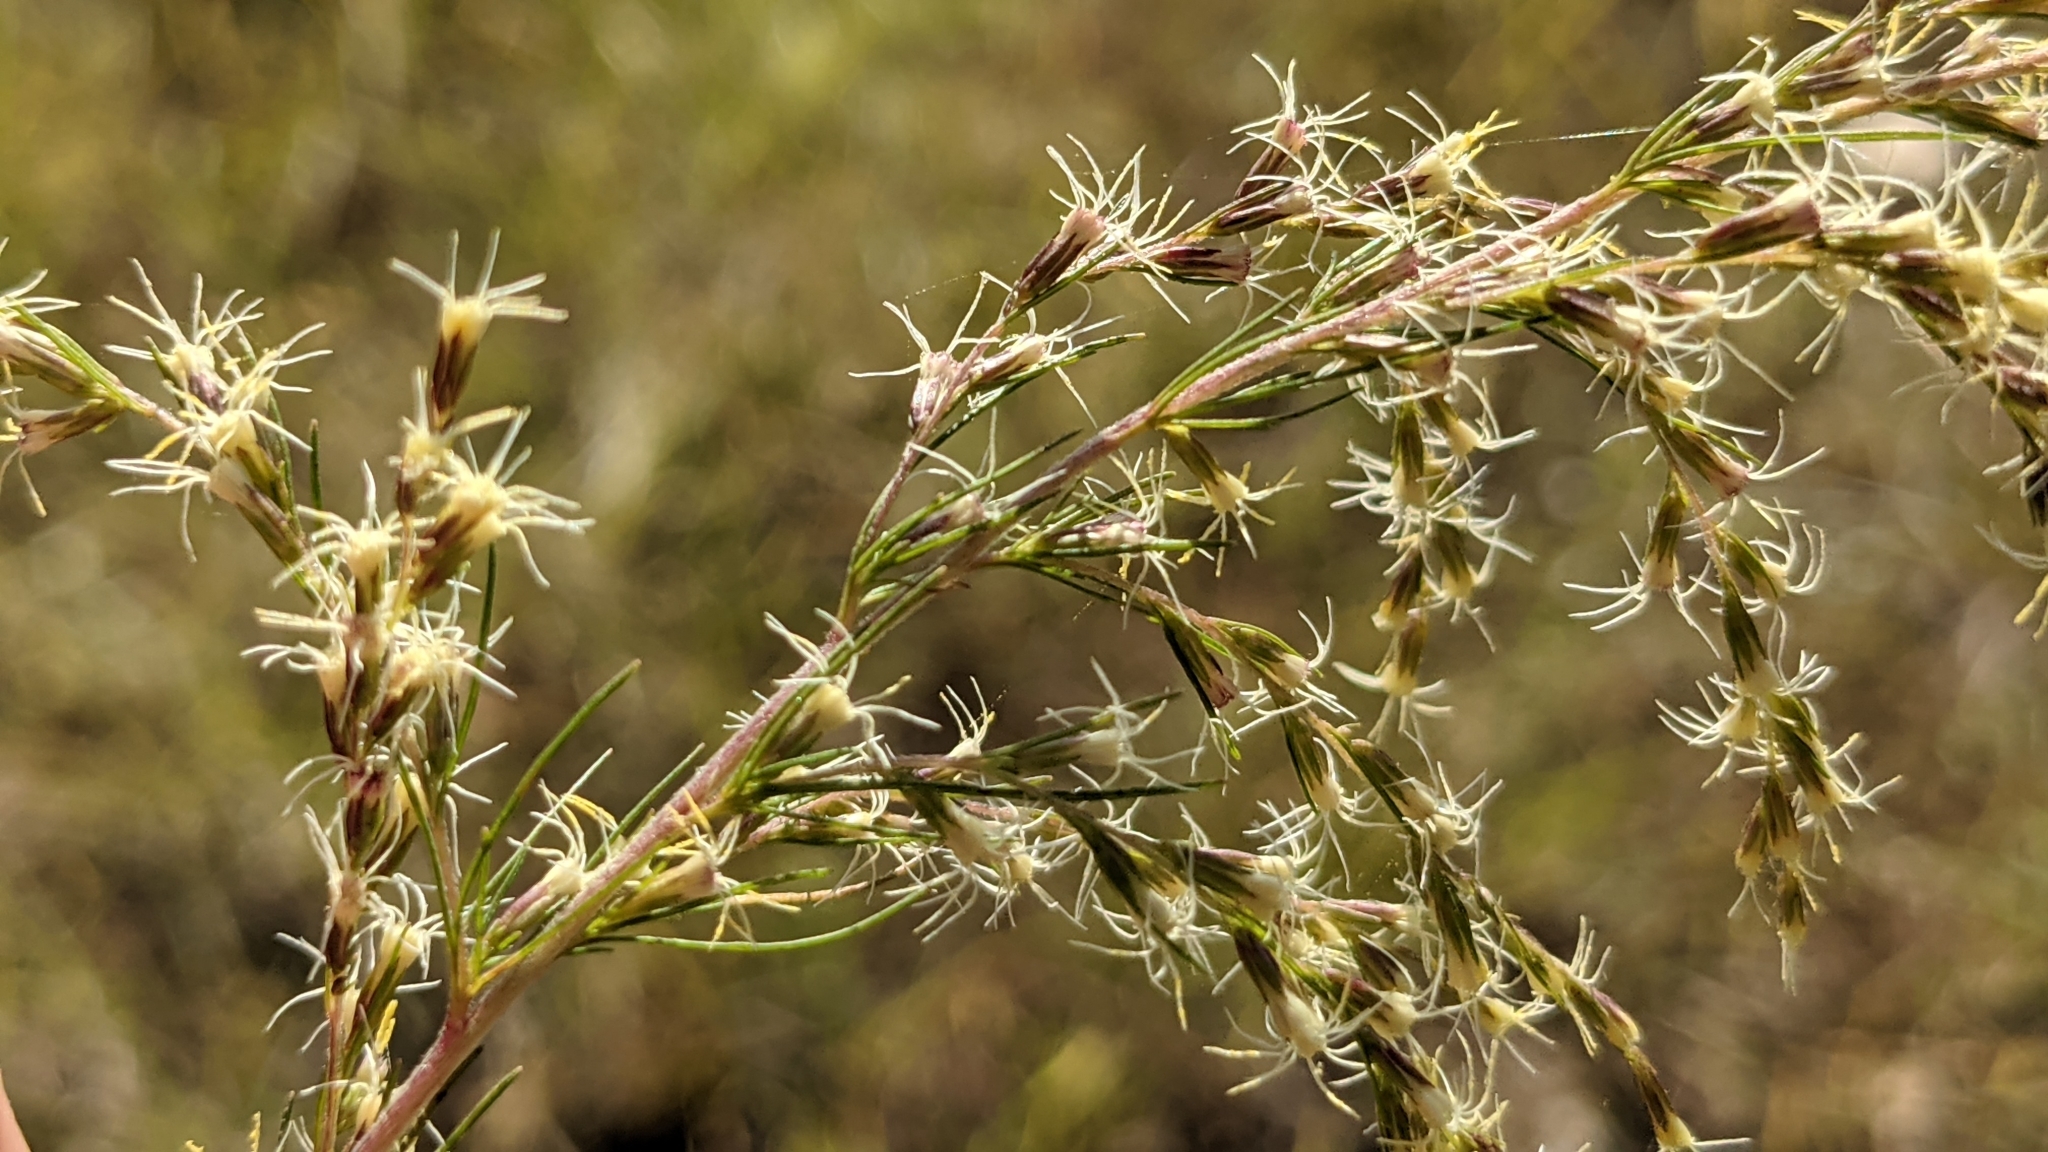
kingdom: Plantae
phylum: Tracheophyta
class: Magnoliopsida
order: Asterales
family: Asteraceae
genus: Eupatorium
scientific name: Eupatorium capillifolium
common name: Dog-fennel
